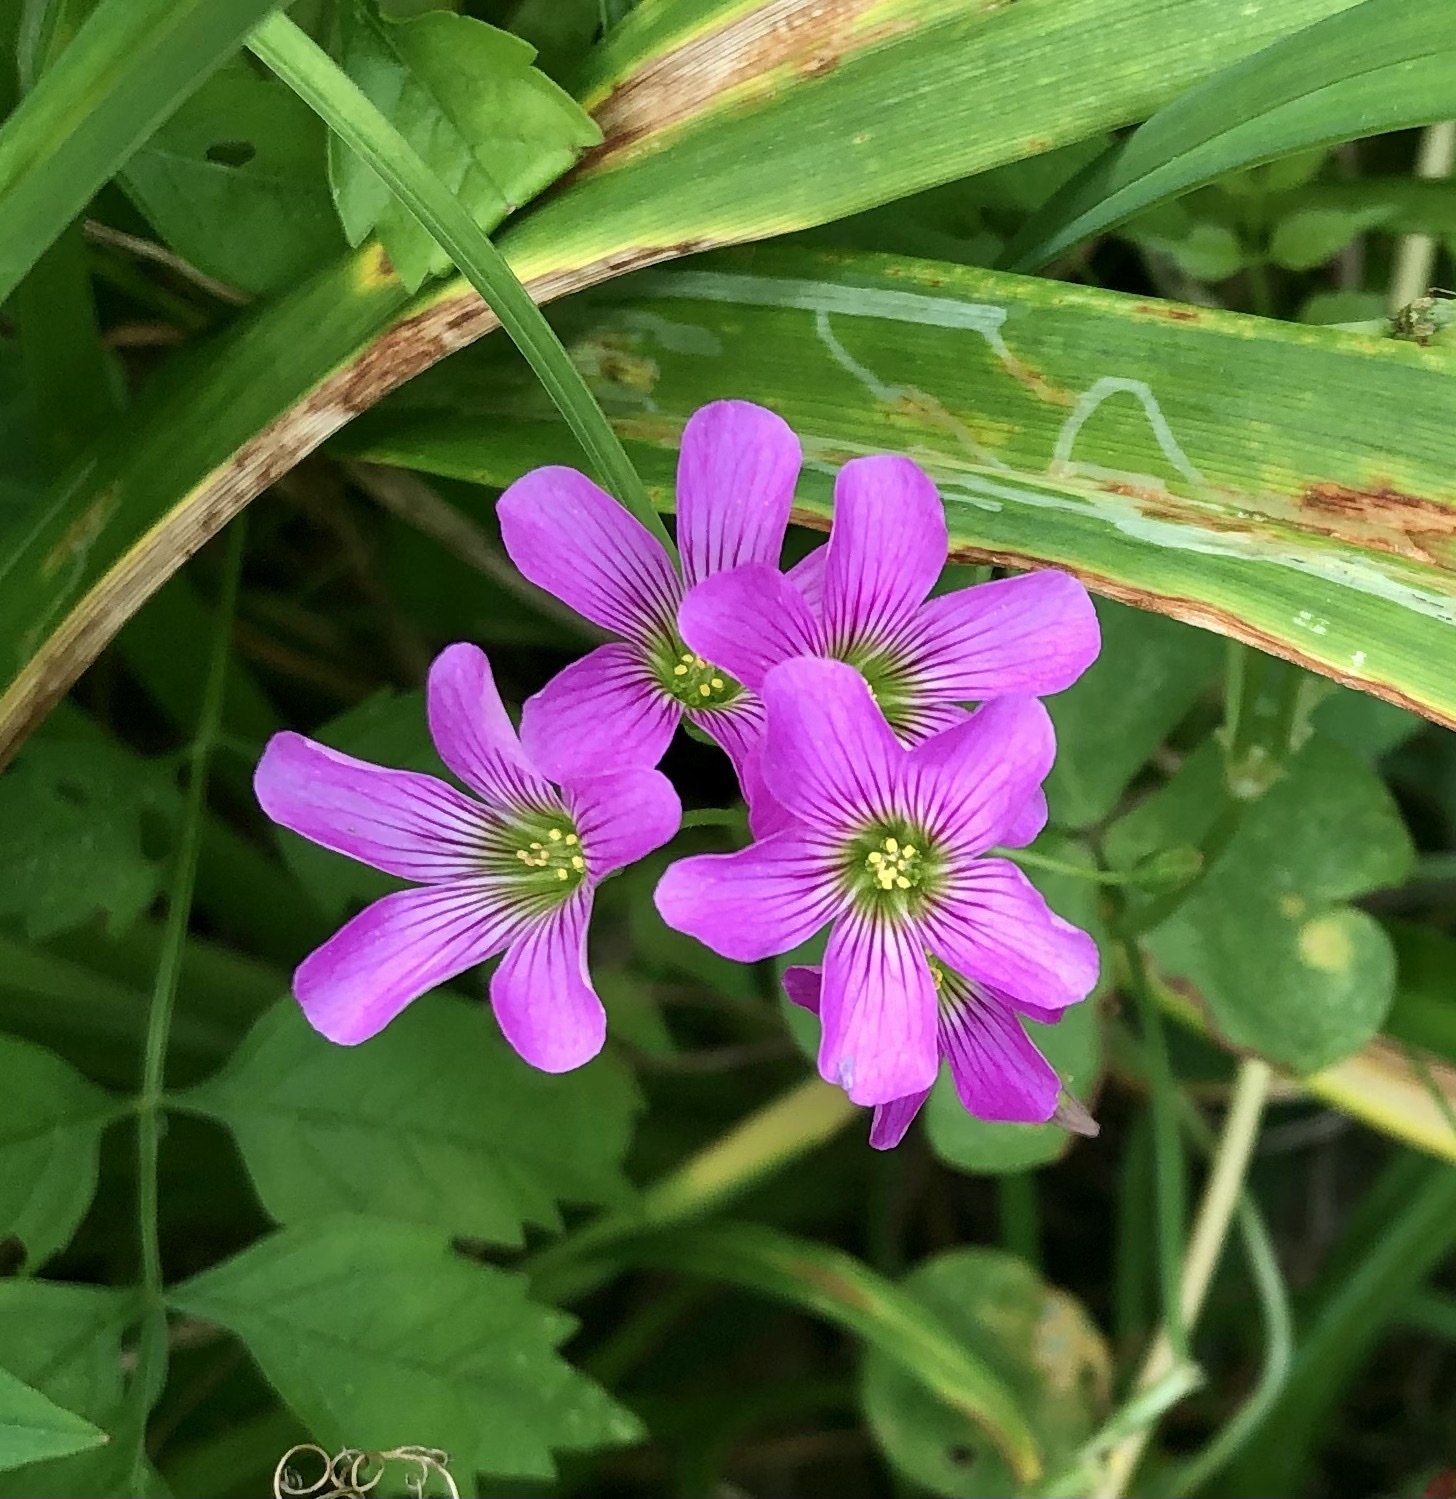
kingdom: Plantae
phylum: Tracheophyta
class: Magnoliopsida
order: Oxalidales
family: Oxalidaceae
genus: Oxalis
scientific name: Oxalis debilis
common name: Large-flowered pink-sorrel
